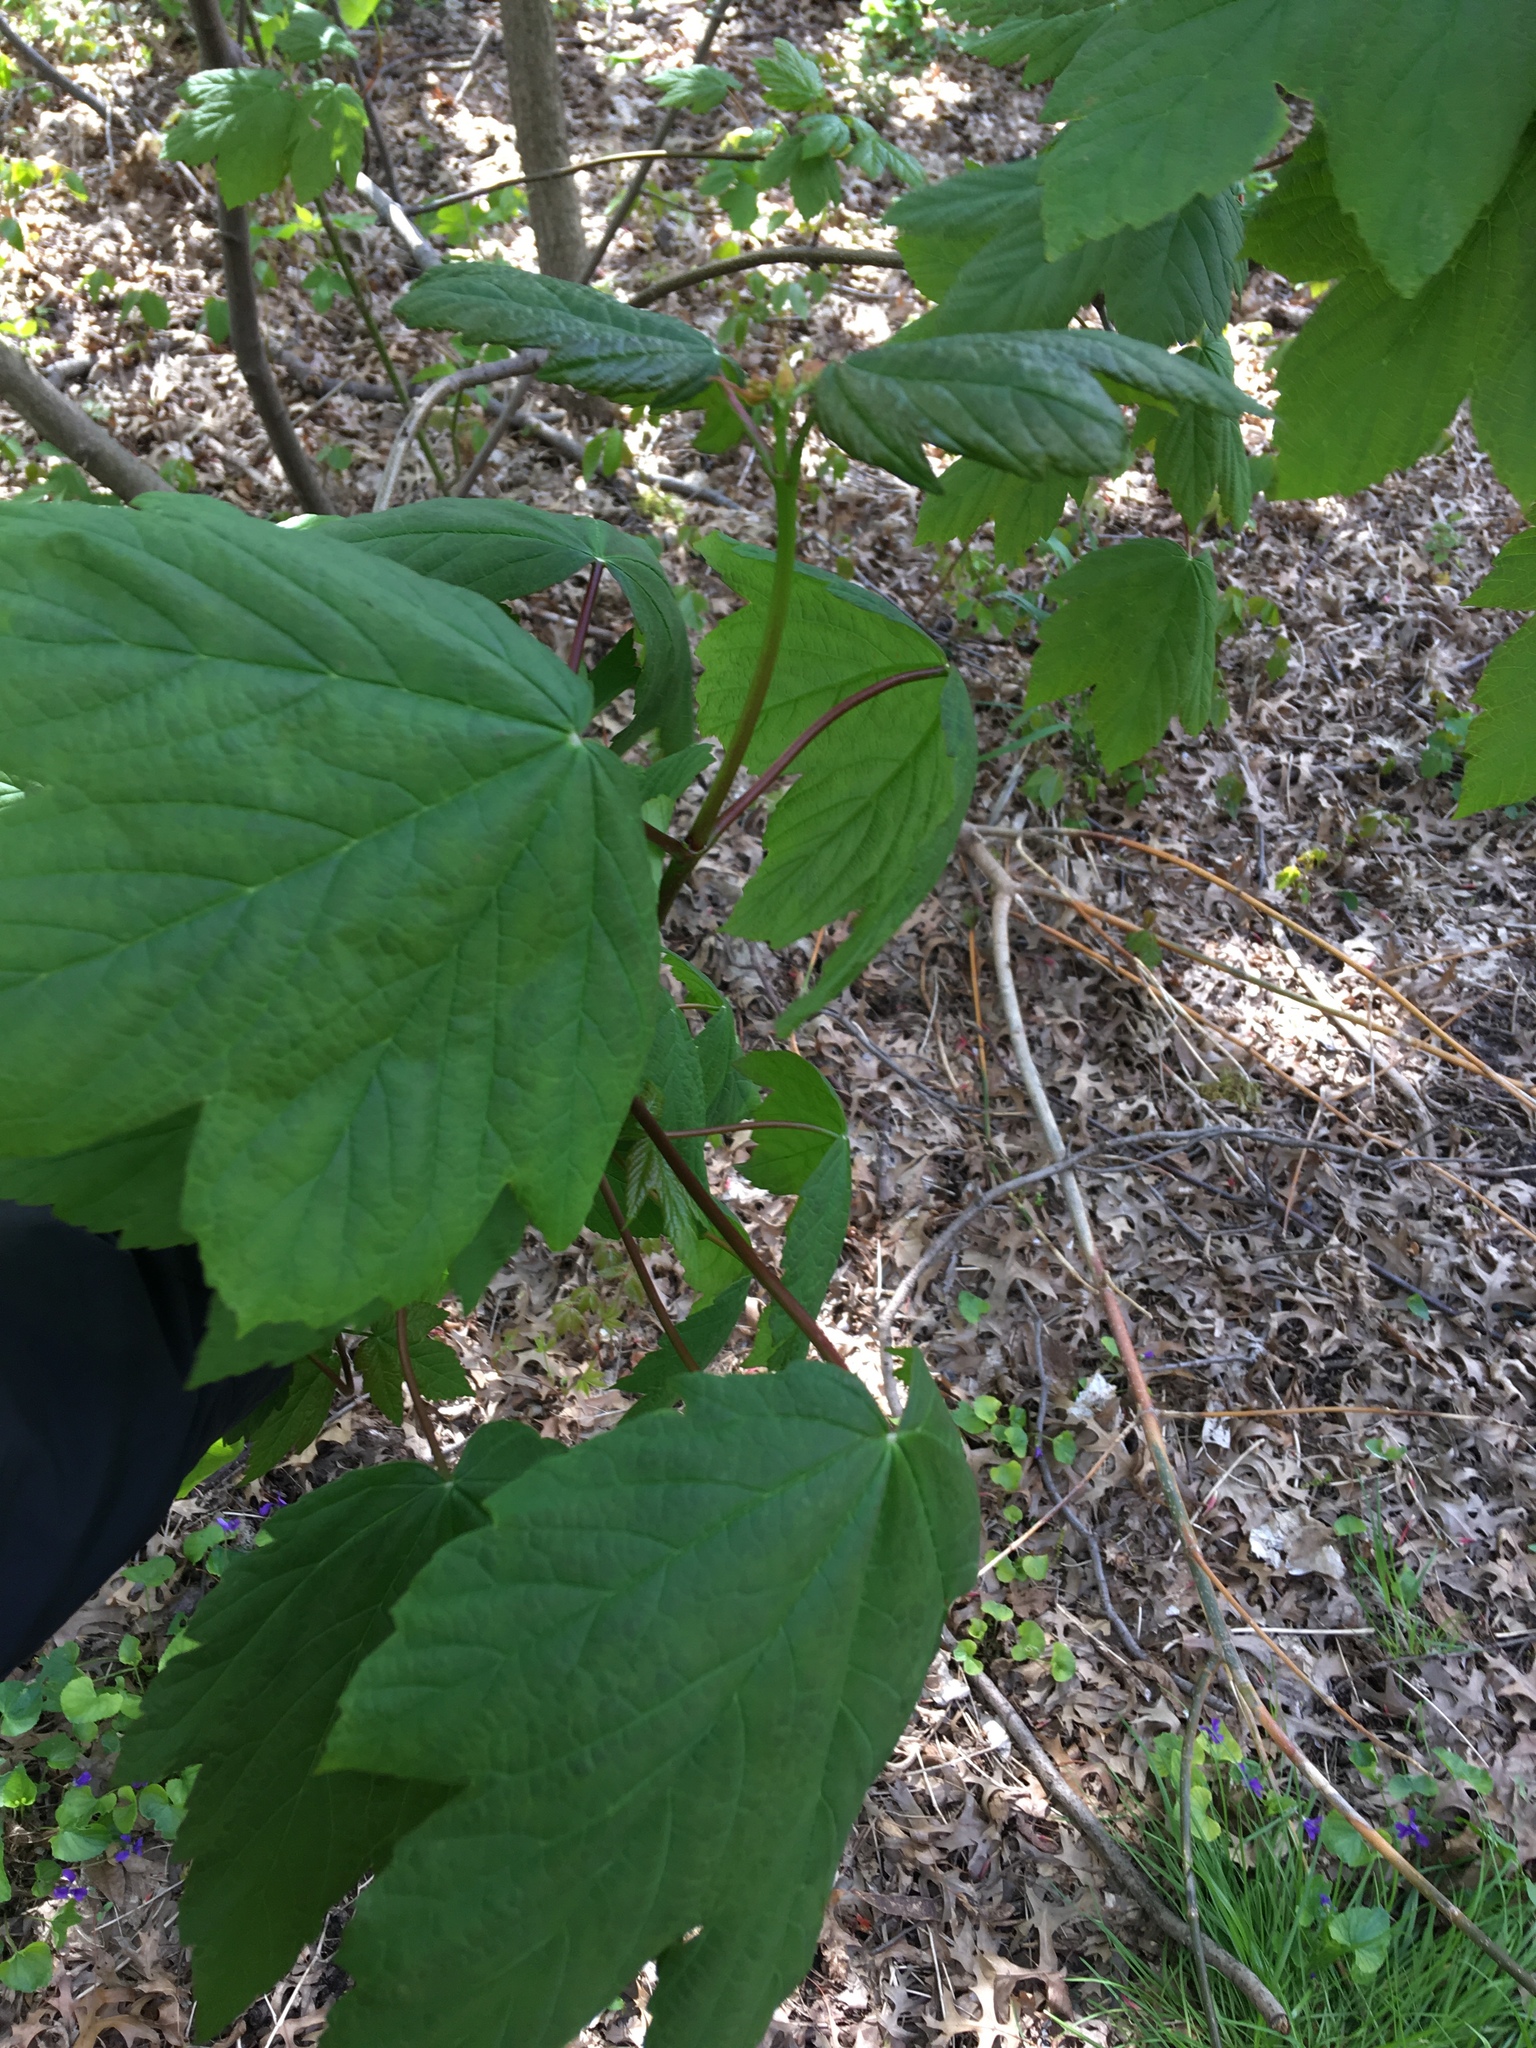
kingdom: Plantae
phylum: Tracheophyta
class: Magnoliopsida
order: Sapindales
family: Sapindaceae
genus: Acer
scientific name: Acer pseudoplatanus
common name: Sycamore
